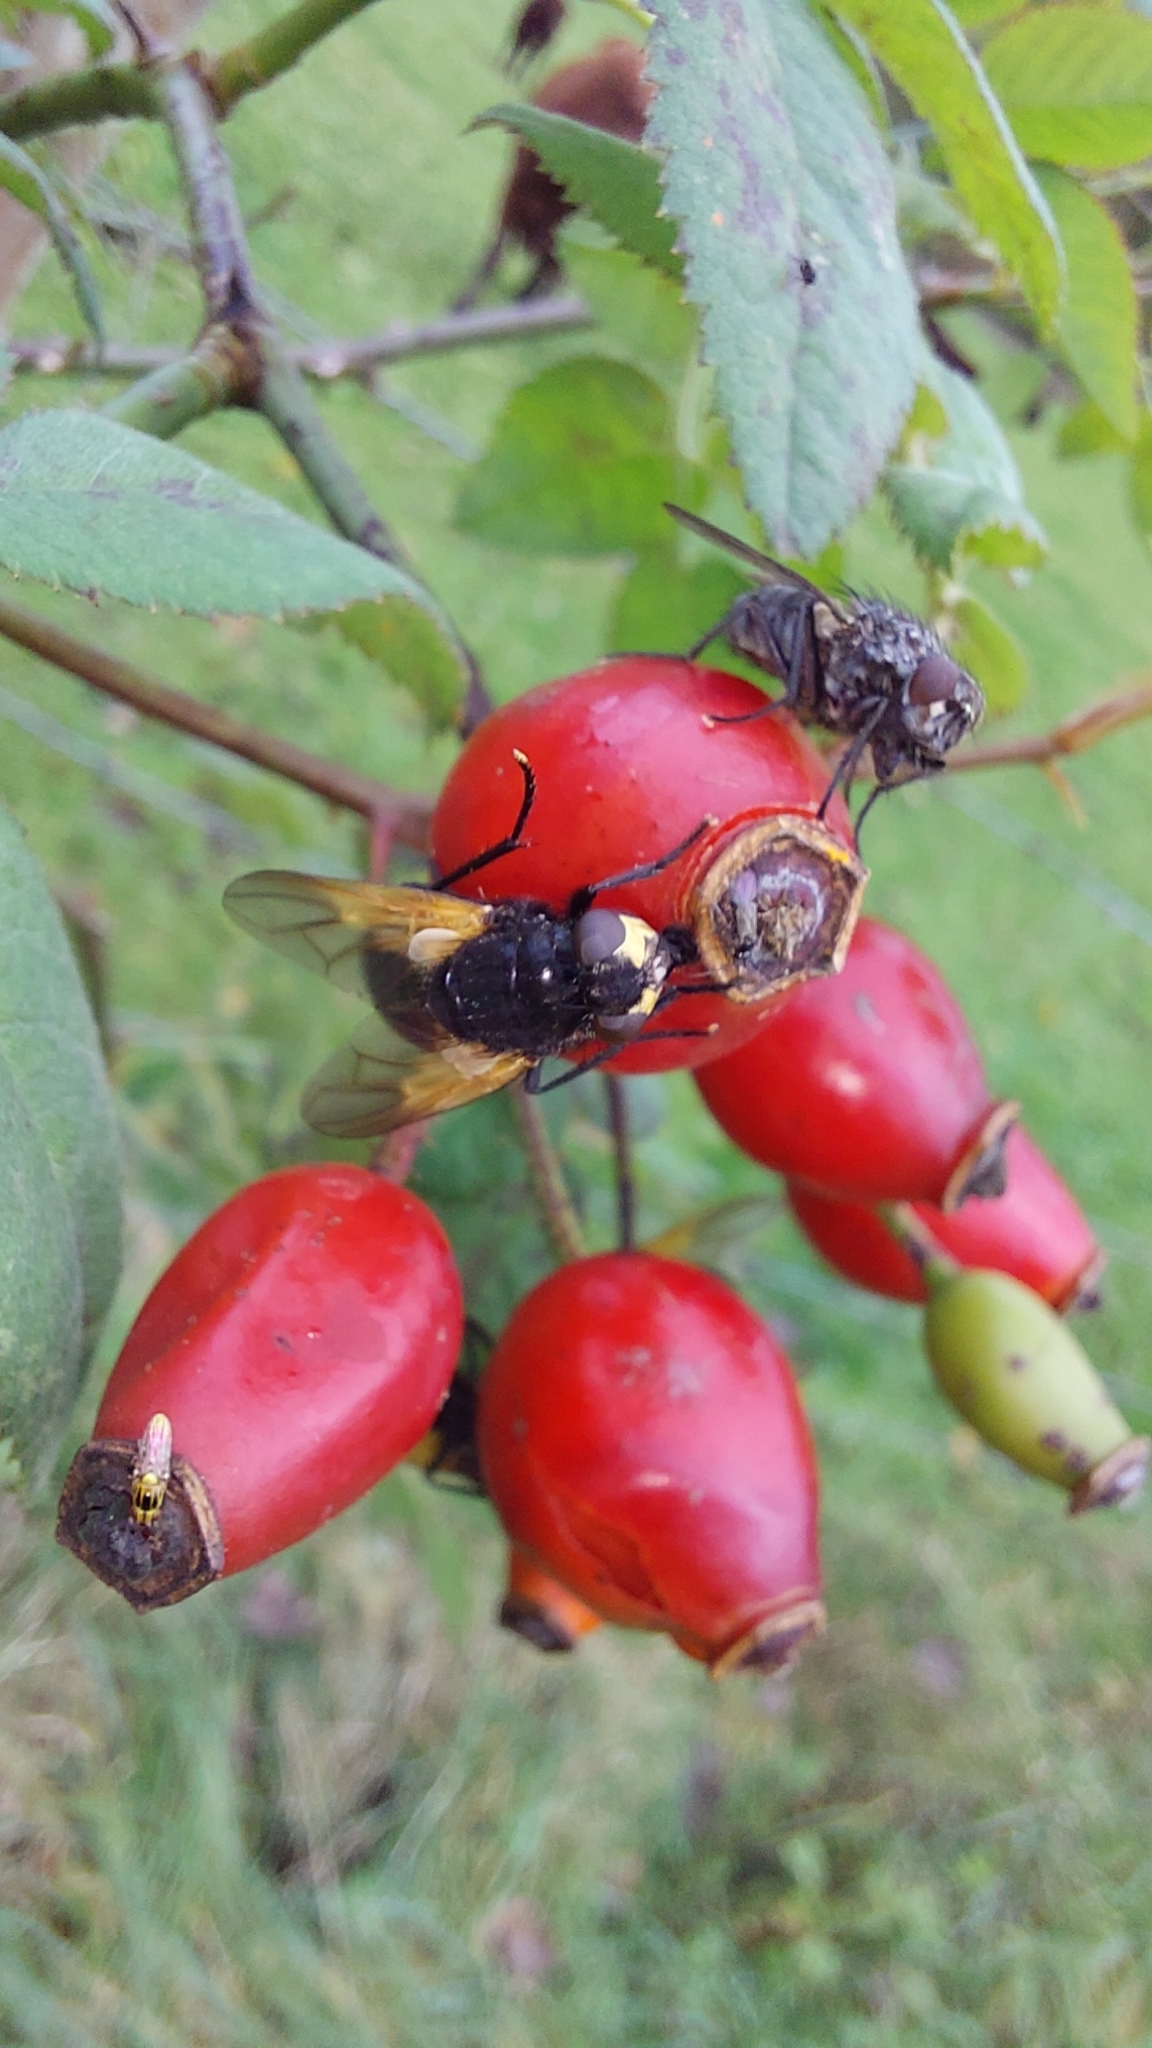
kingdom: Animalia
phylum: Arthropoda
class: Insecta
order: Diptera
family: Muscidae
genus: Mesembrina
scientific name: Mesembrina meridiana
